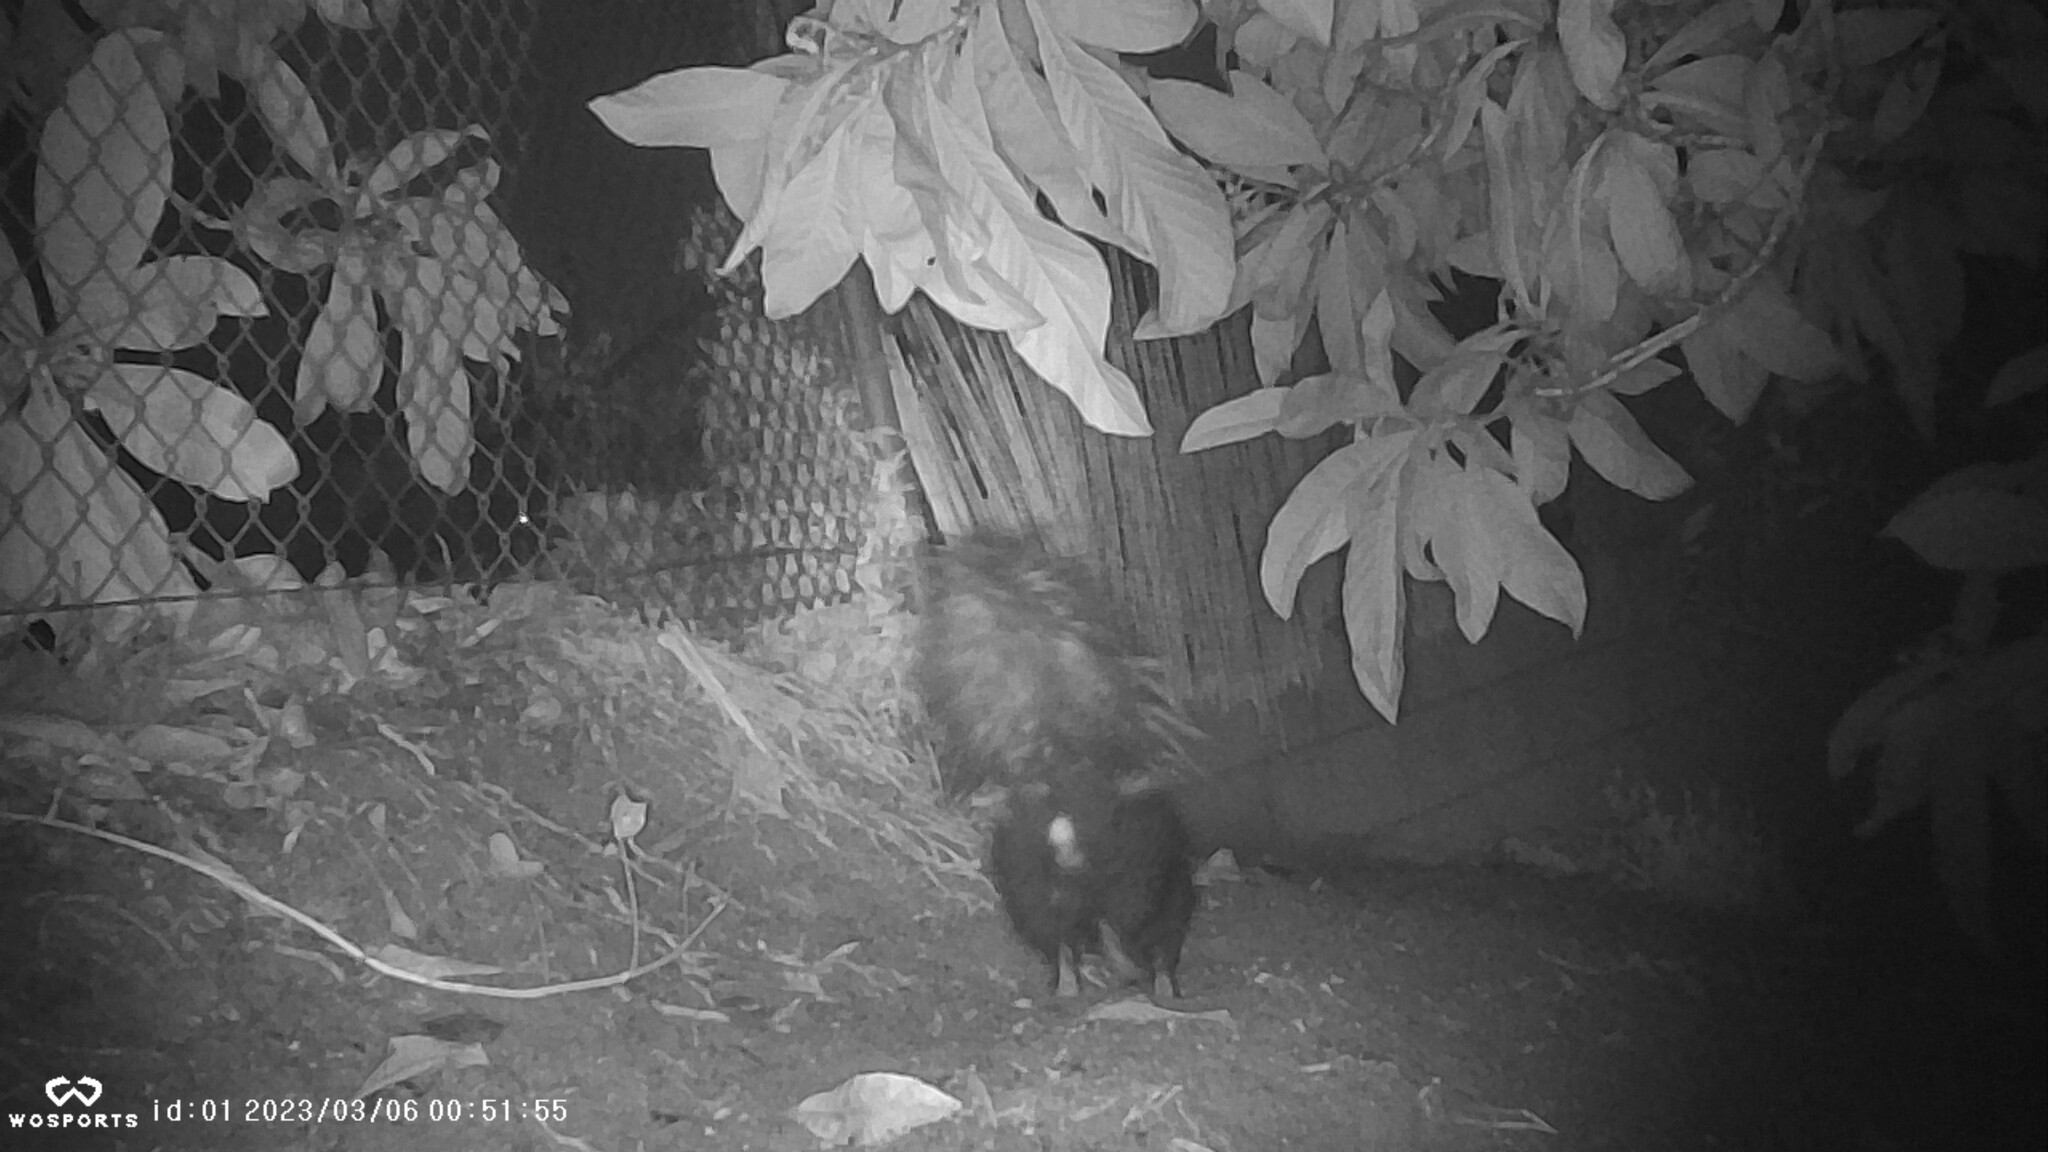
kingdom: Animalia
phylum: Chordata
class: Mammalia
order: Carnivora
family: Mephitidae
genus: Mephitis
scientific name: Mephitis mephitis
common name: Striped skunk
